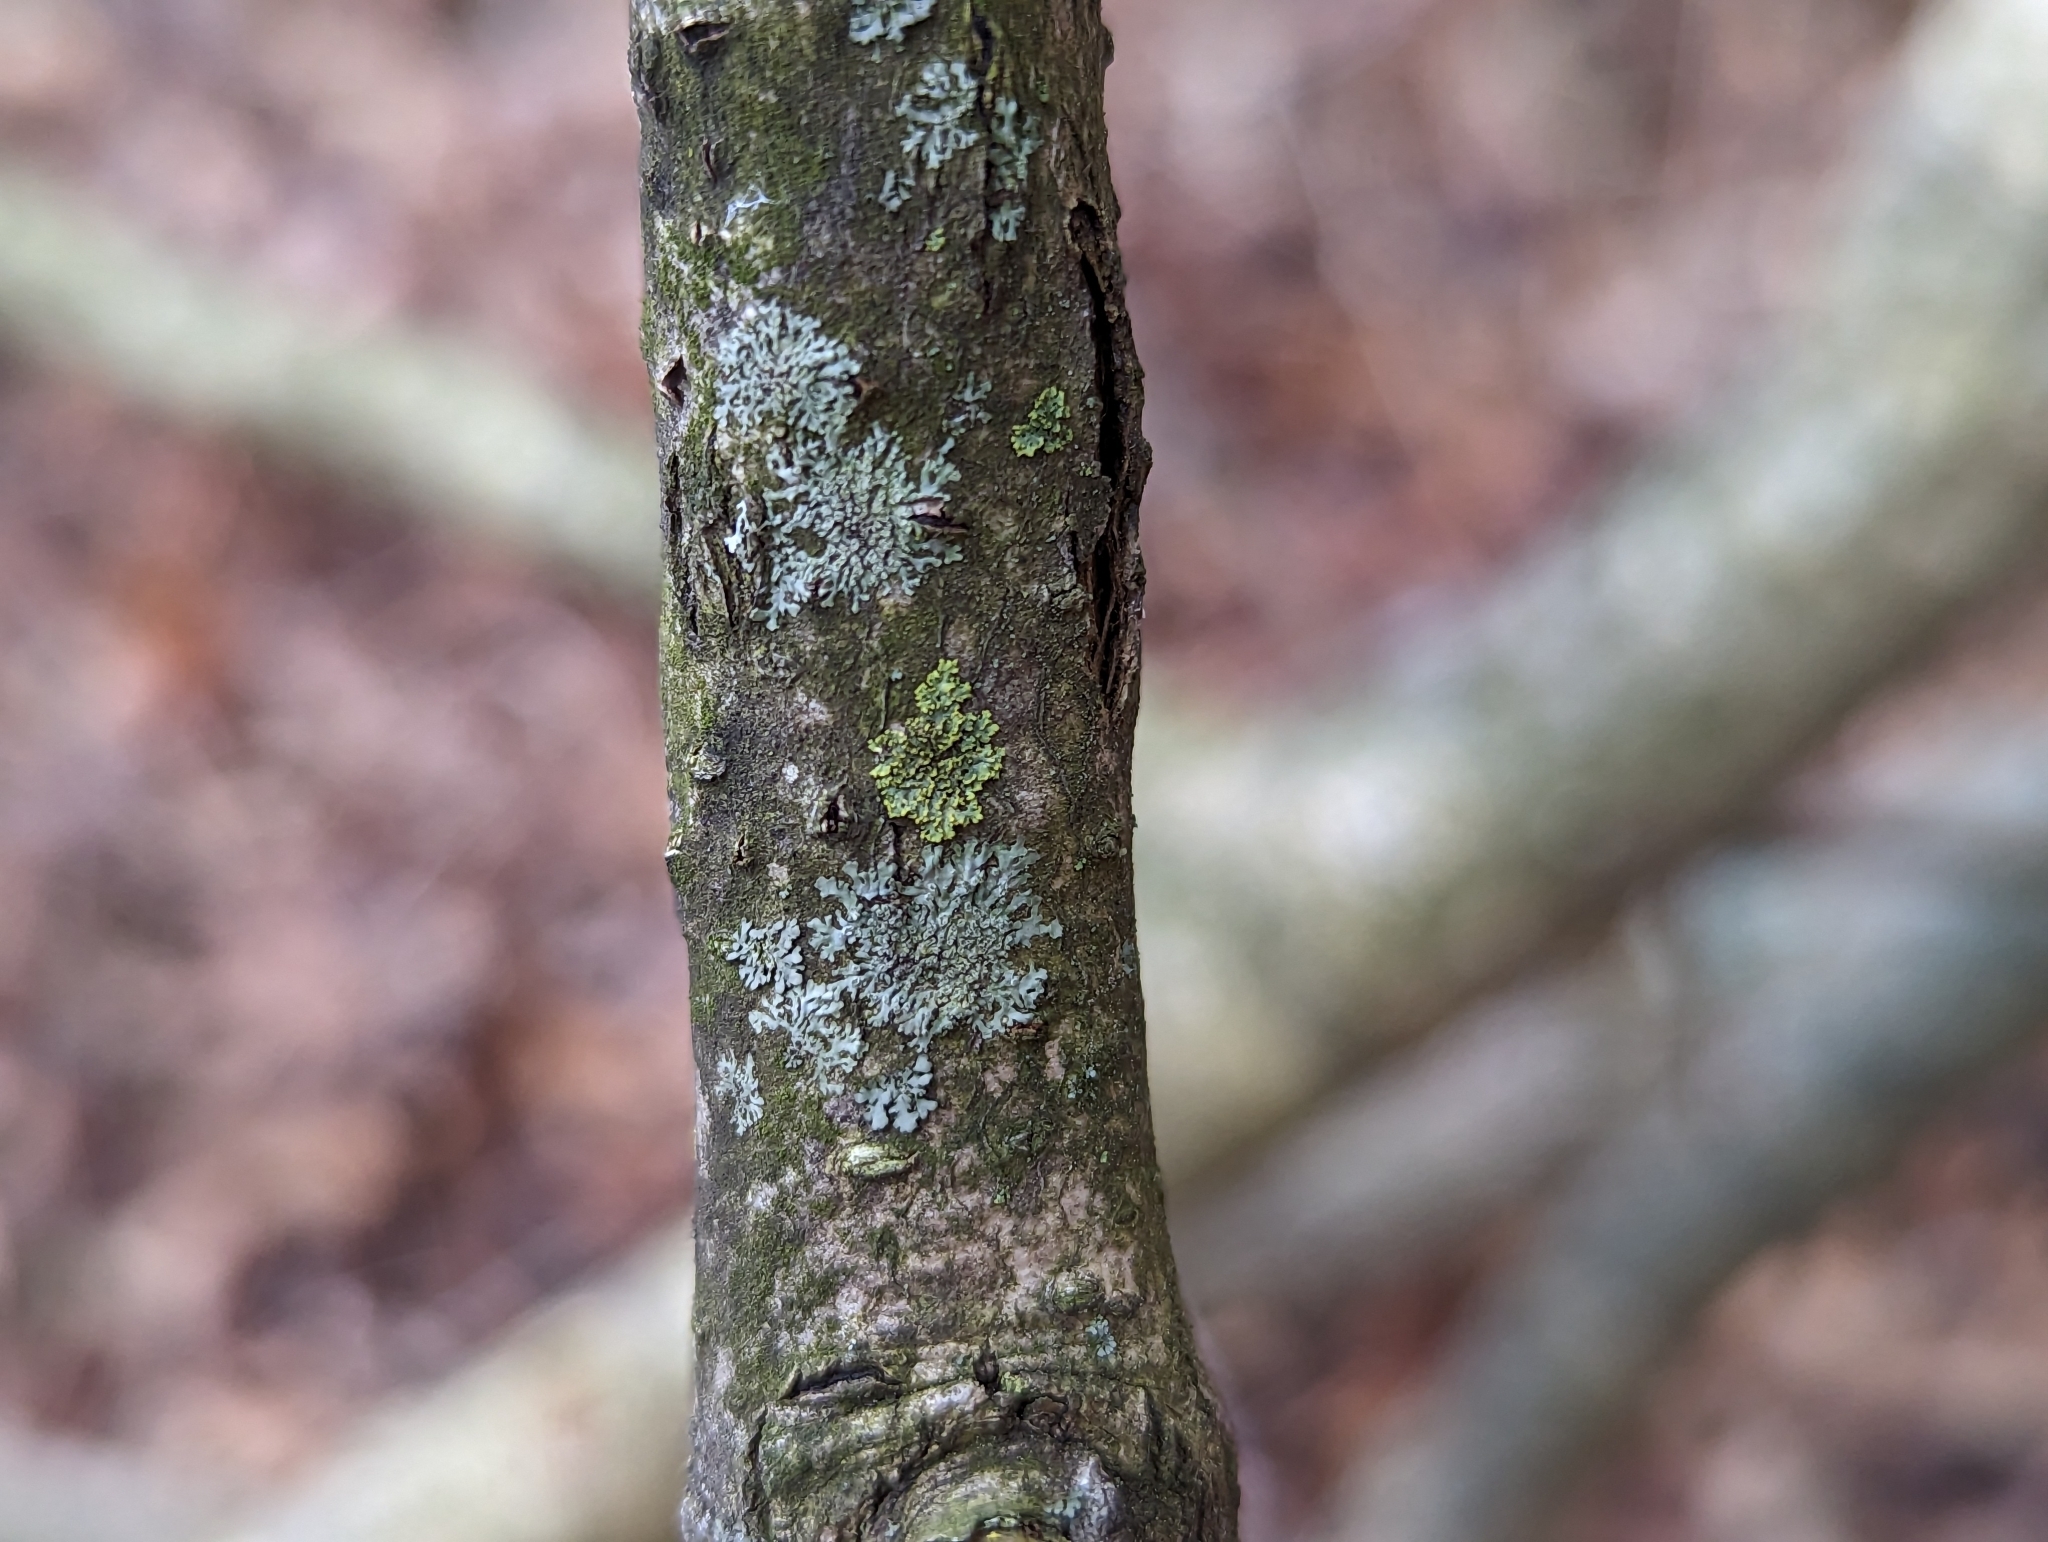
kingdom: Fungi
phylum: Ascomycota
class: Lecanoromycetes
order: Caliciales
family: Physciaceae
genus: Hyperphyscia
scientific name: Hyperphyscia adglutinata
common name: Grainy shadow-crust lichen
